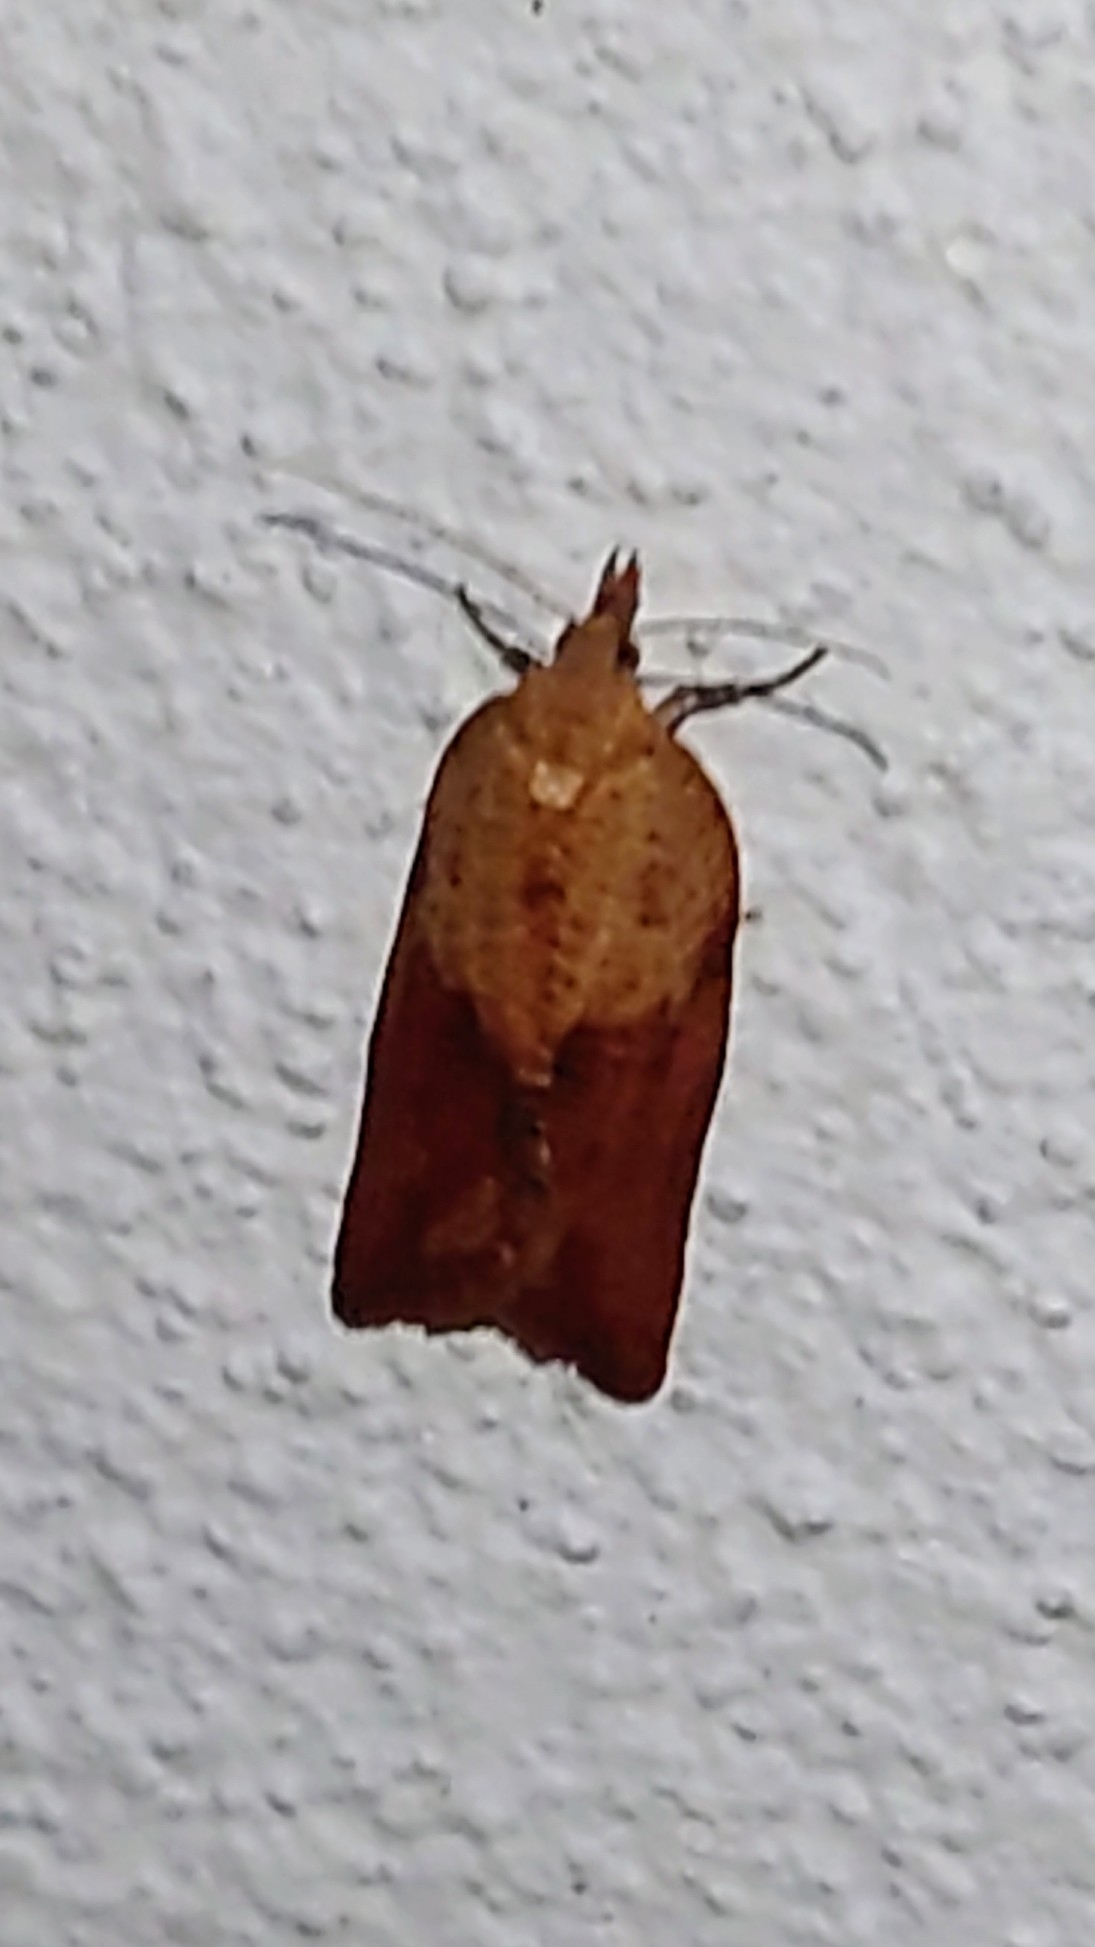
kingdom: Animalia
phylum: Arthropoda
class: Insecta
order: Lepidoptera
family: Tortricidae
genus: Epiphyas
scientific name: Epiphyas postvittana
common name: Light brown apple moth
